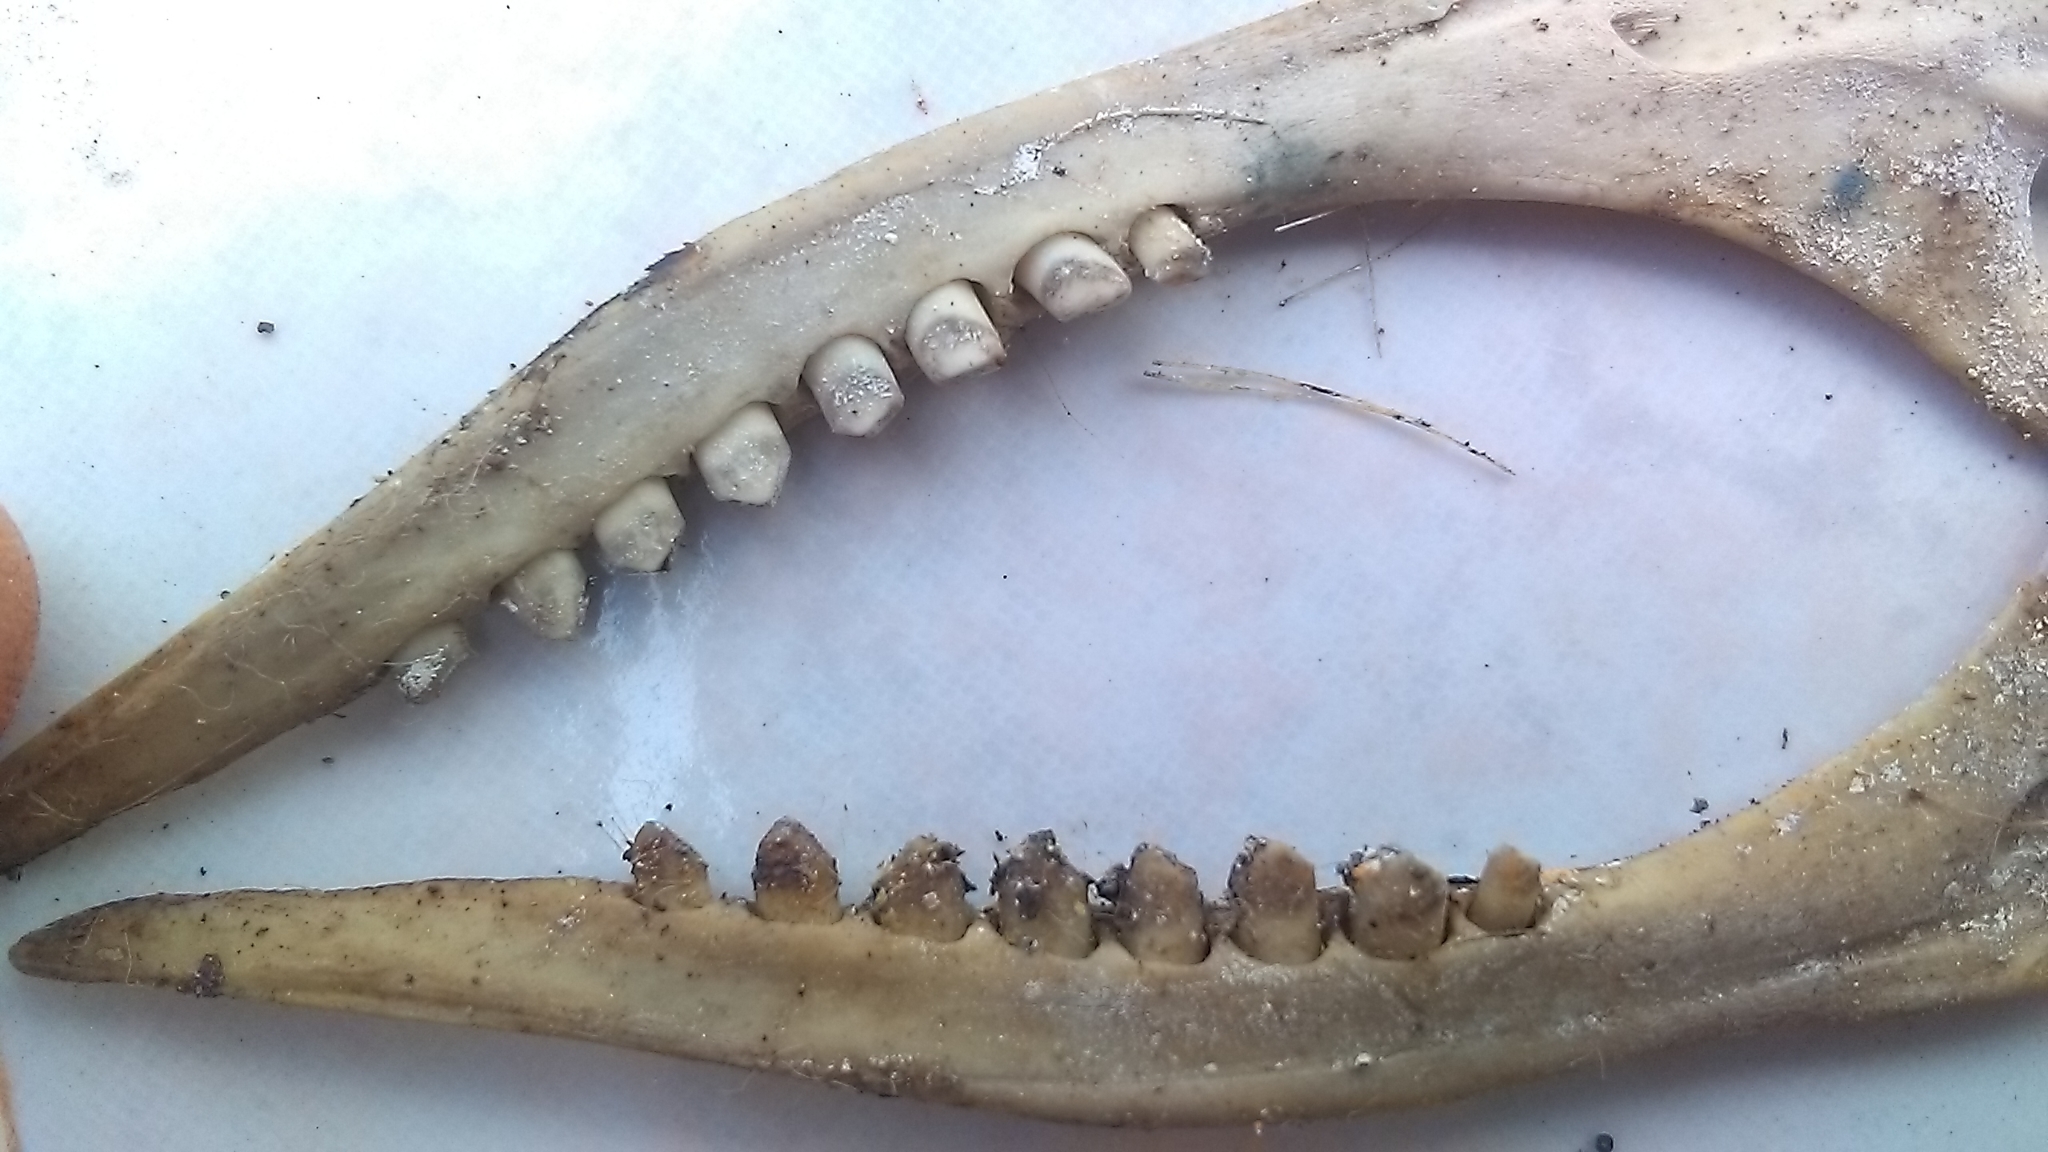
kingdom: Animalia
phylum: Chordata
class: Mammalia
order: Cingulata
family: Dasypodidae
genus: Dasypus
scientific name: Dasypus novemcinctus
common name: Nine-banded armadillo
